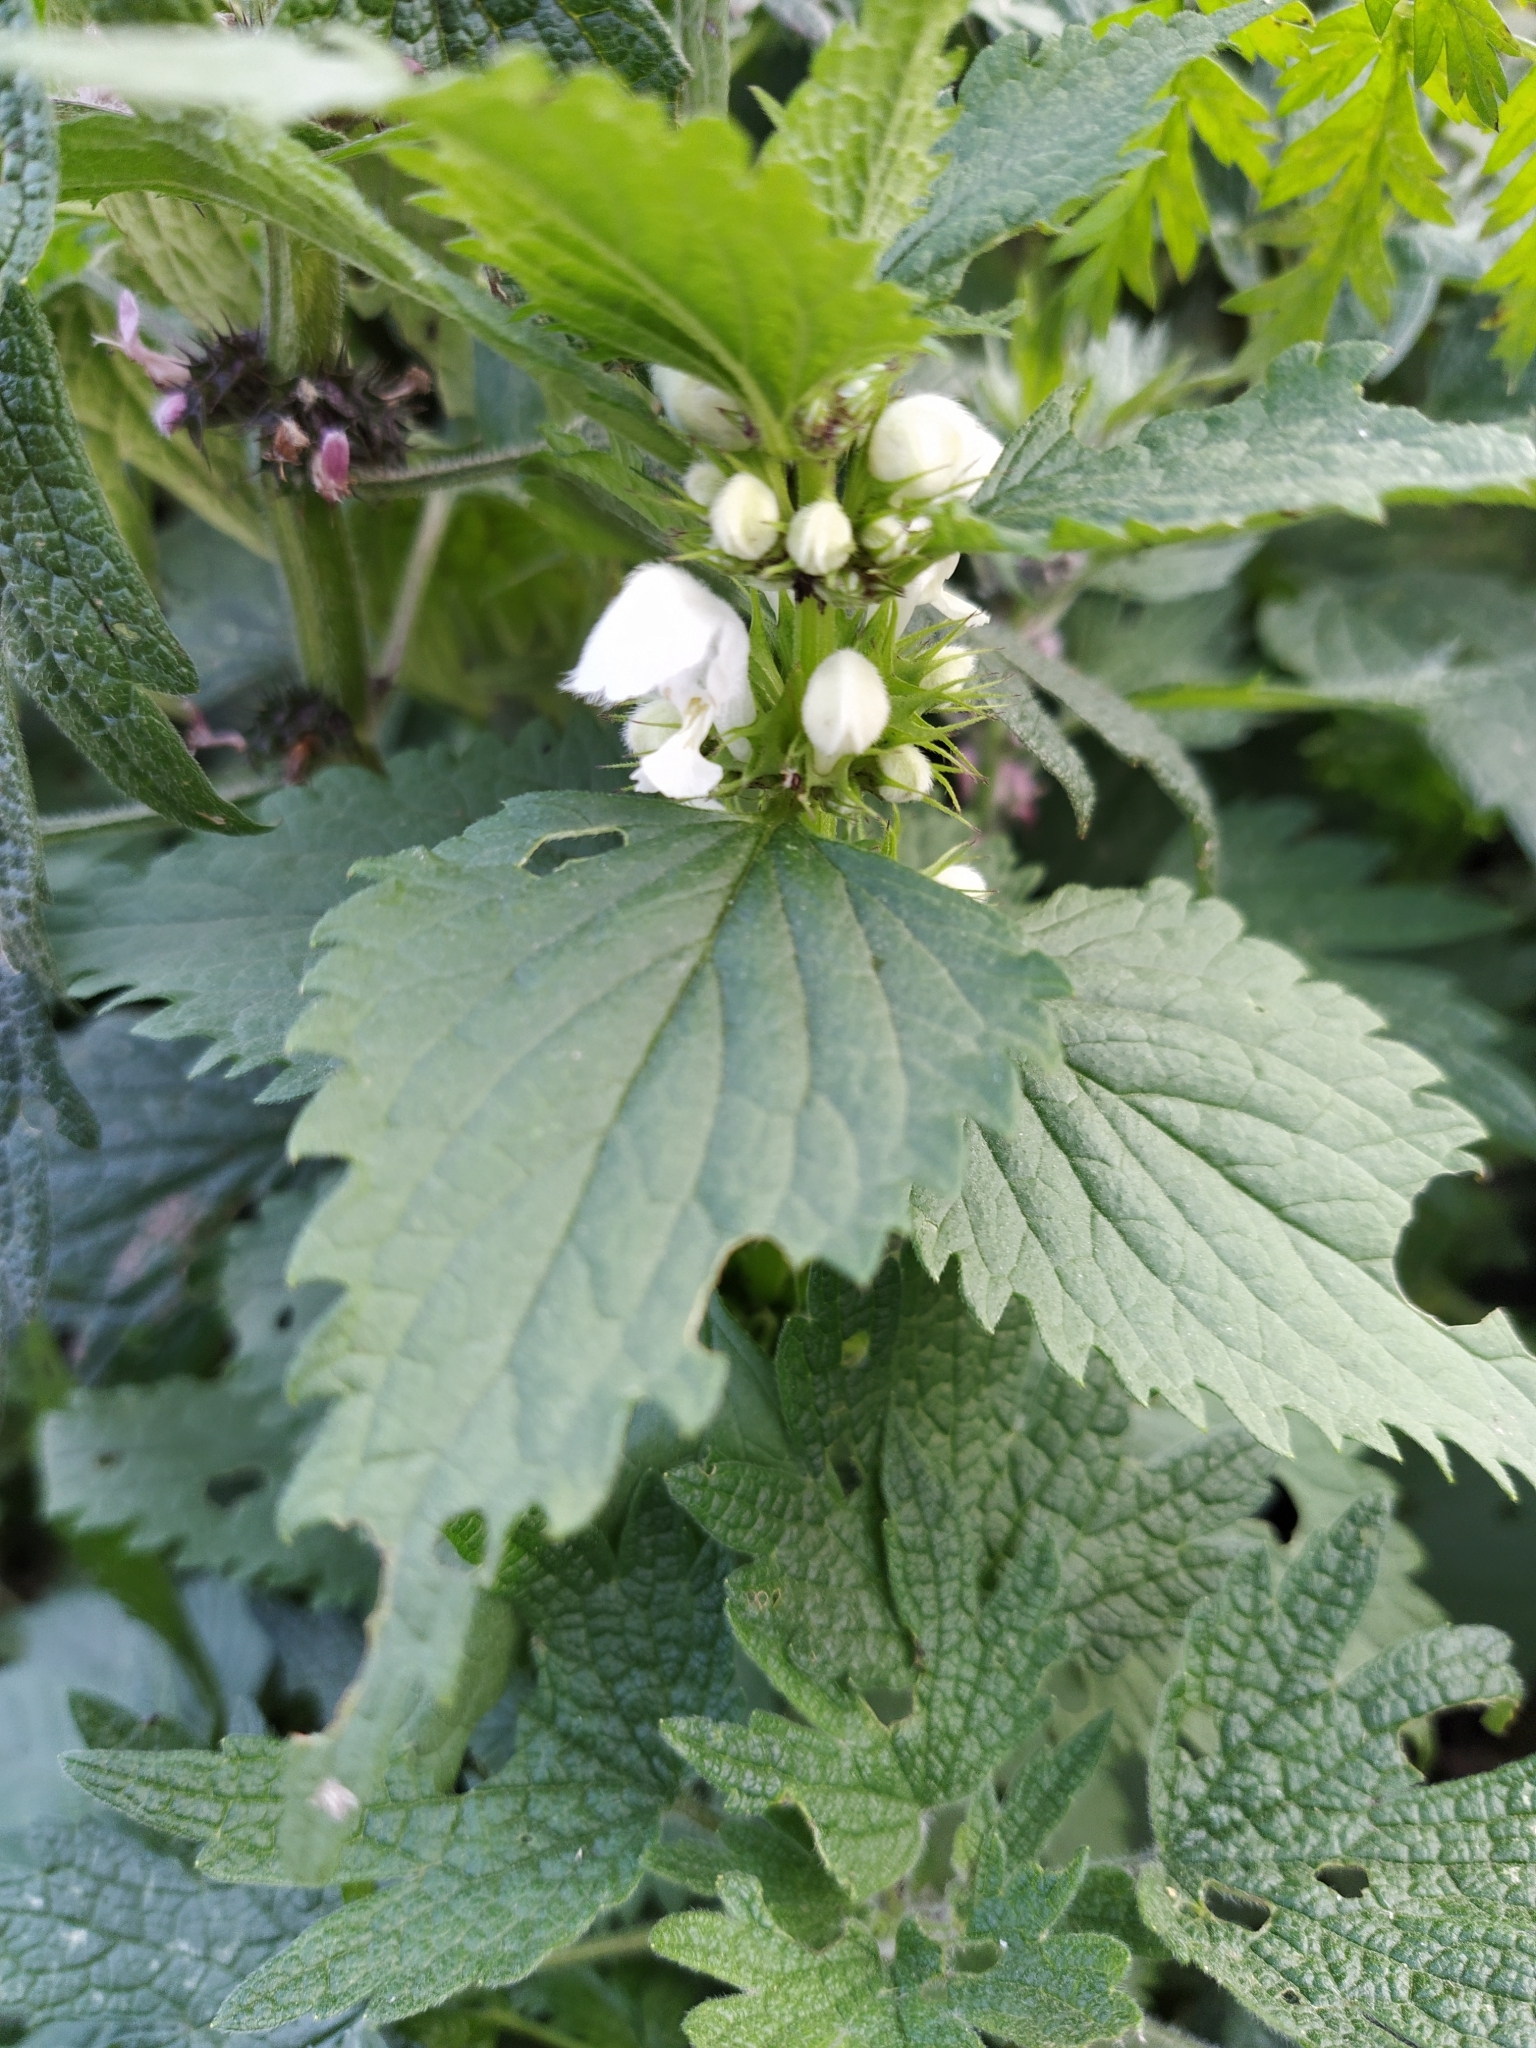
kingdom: Plantae
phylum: Tracheophyta
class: Magnoliopsida
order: Lamiales
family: Lamiaceae
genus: Lamium
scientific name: Lamium album
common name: White dead-nettle
